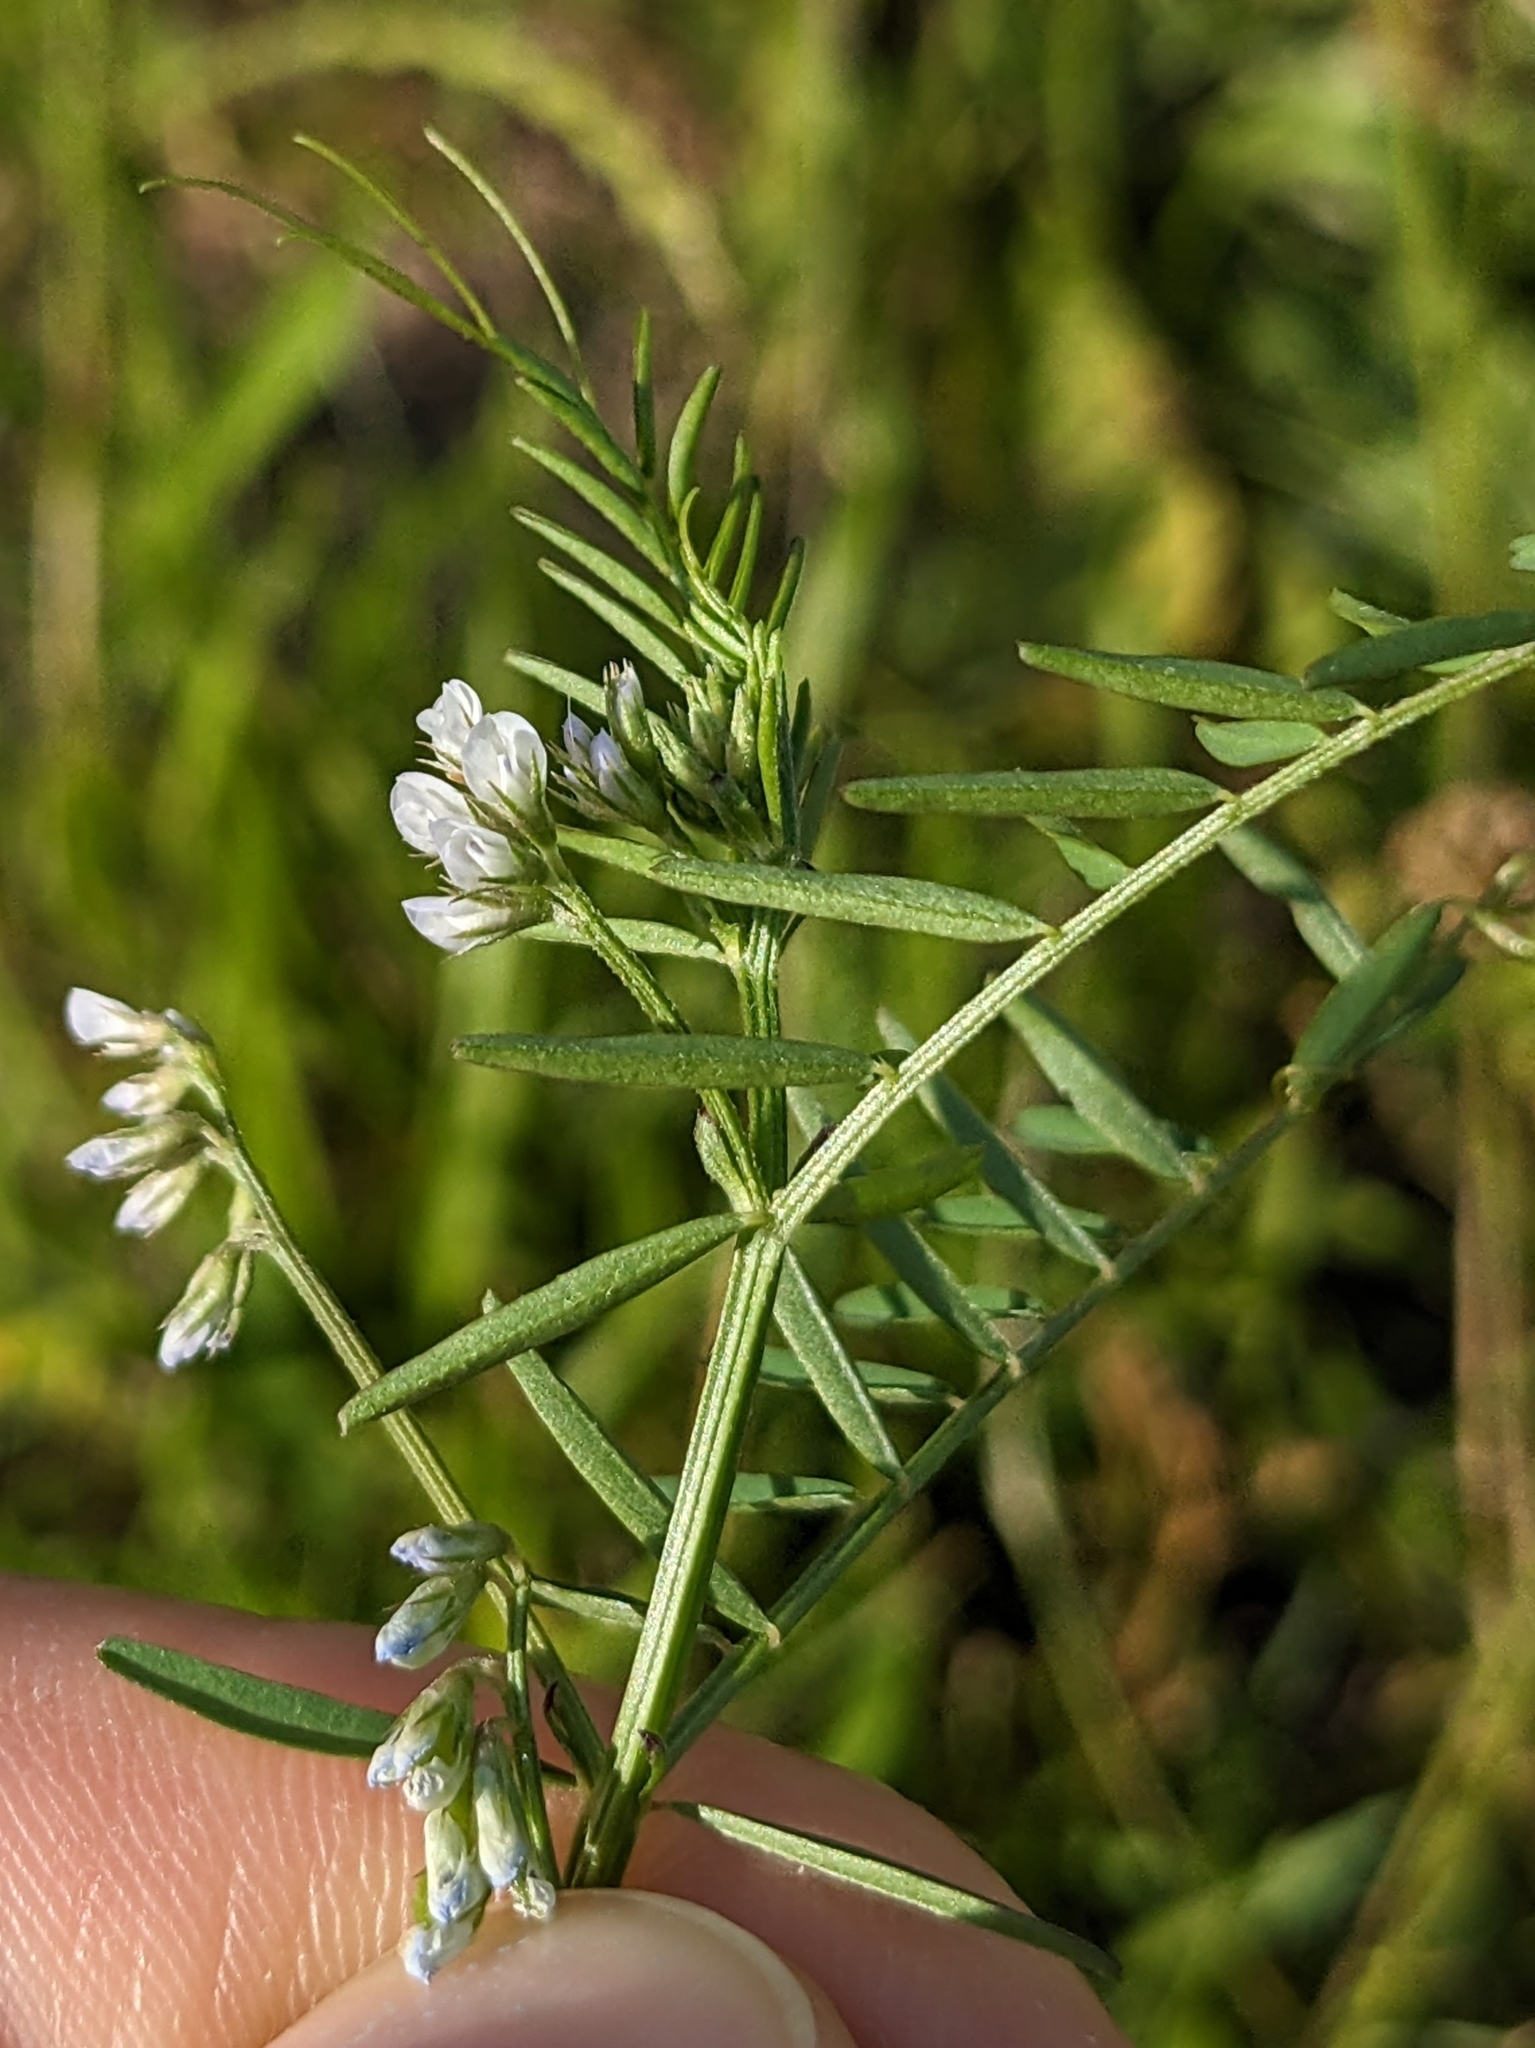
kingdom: Plantae
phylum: Tracheophyta
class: Magnoliopsida
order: Fabales
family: Fabaceae
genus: Vicia
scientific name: Vicia hirsuta
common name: Tiny vetch
